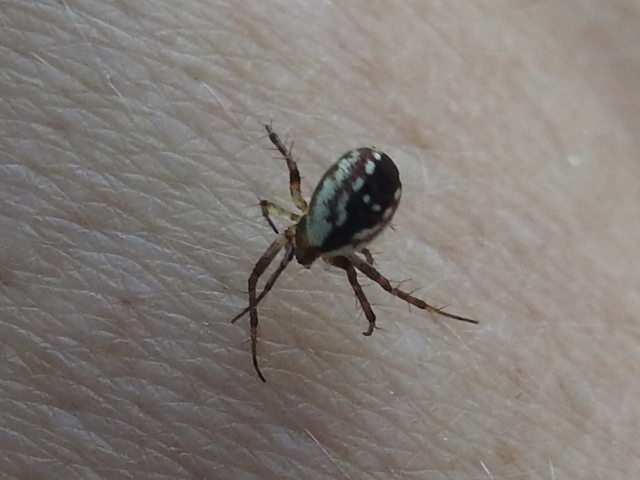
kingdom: Animalia
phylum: Arthropoda
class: Arachnida
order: Araneae
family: Araneidae
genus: Mangora
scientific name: Mangora placida
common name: Tuft-legged orbweaver
